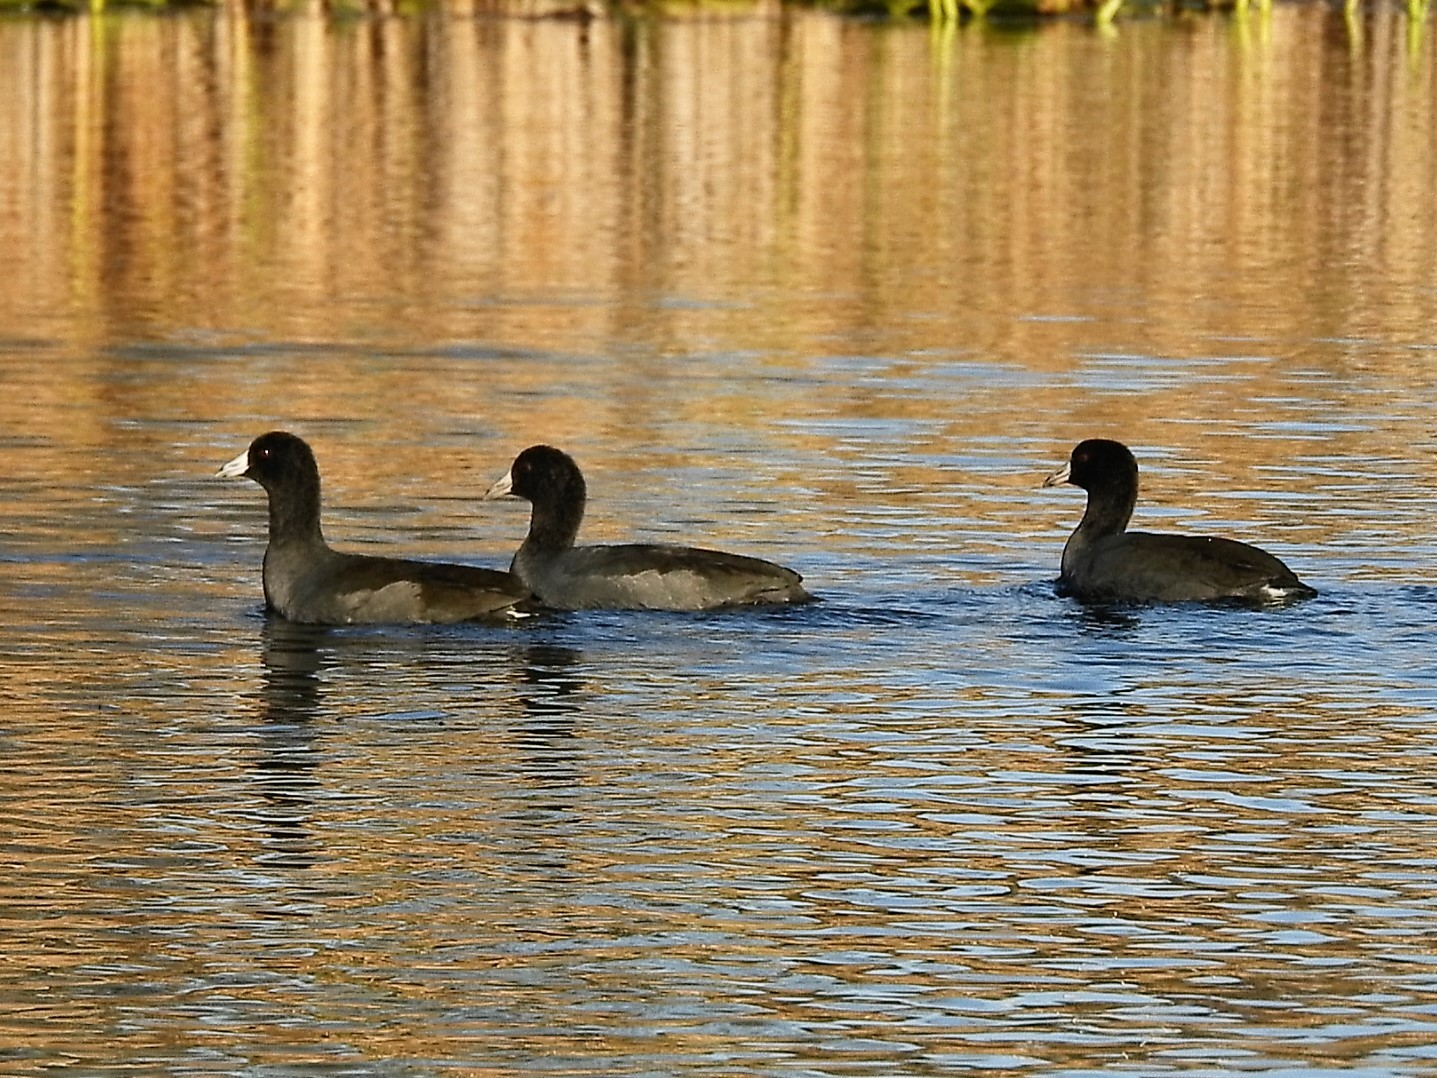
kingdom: Animalia
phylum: Chordata
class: Aves
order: Gruiformes
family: Rallidae
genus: Fulica
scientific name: Fulica americana
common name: American coot
